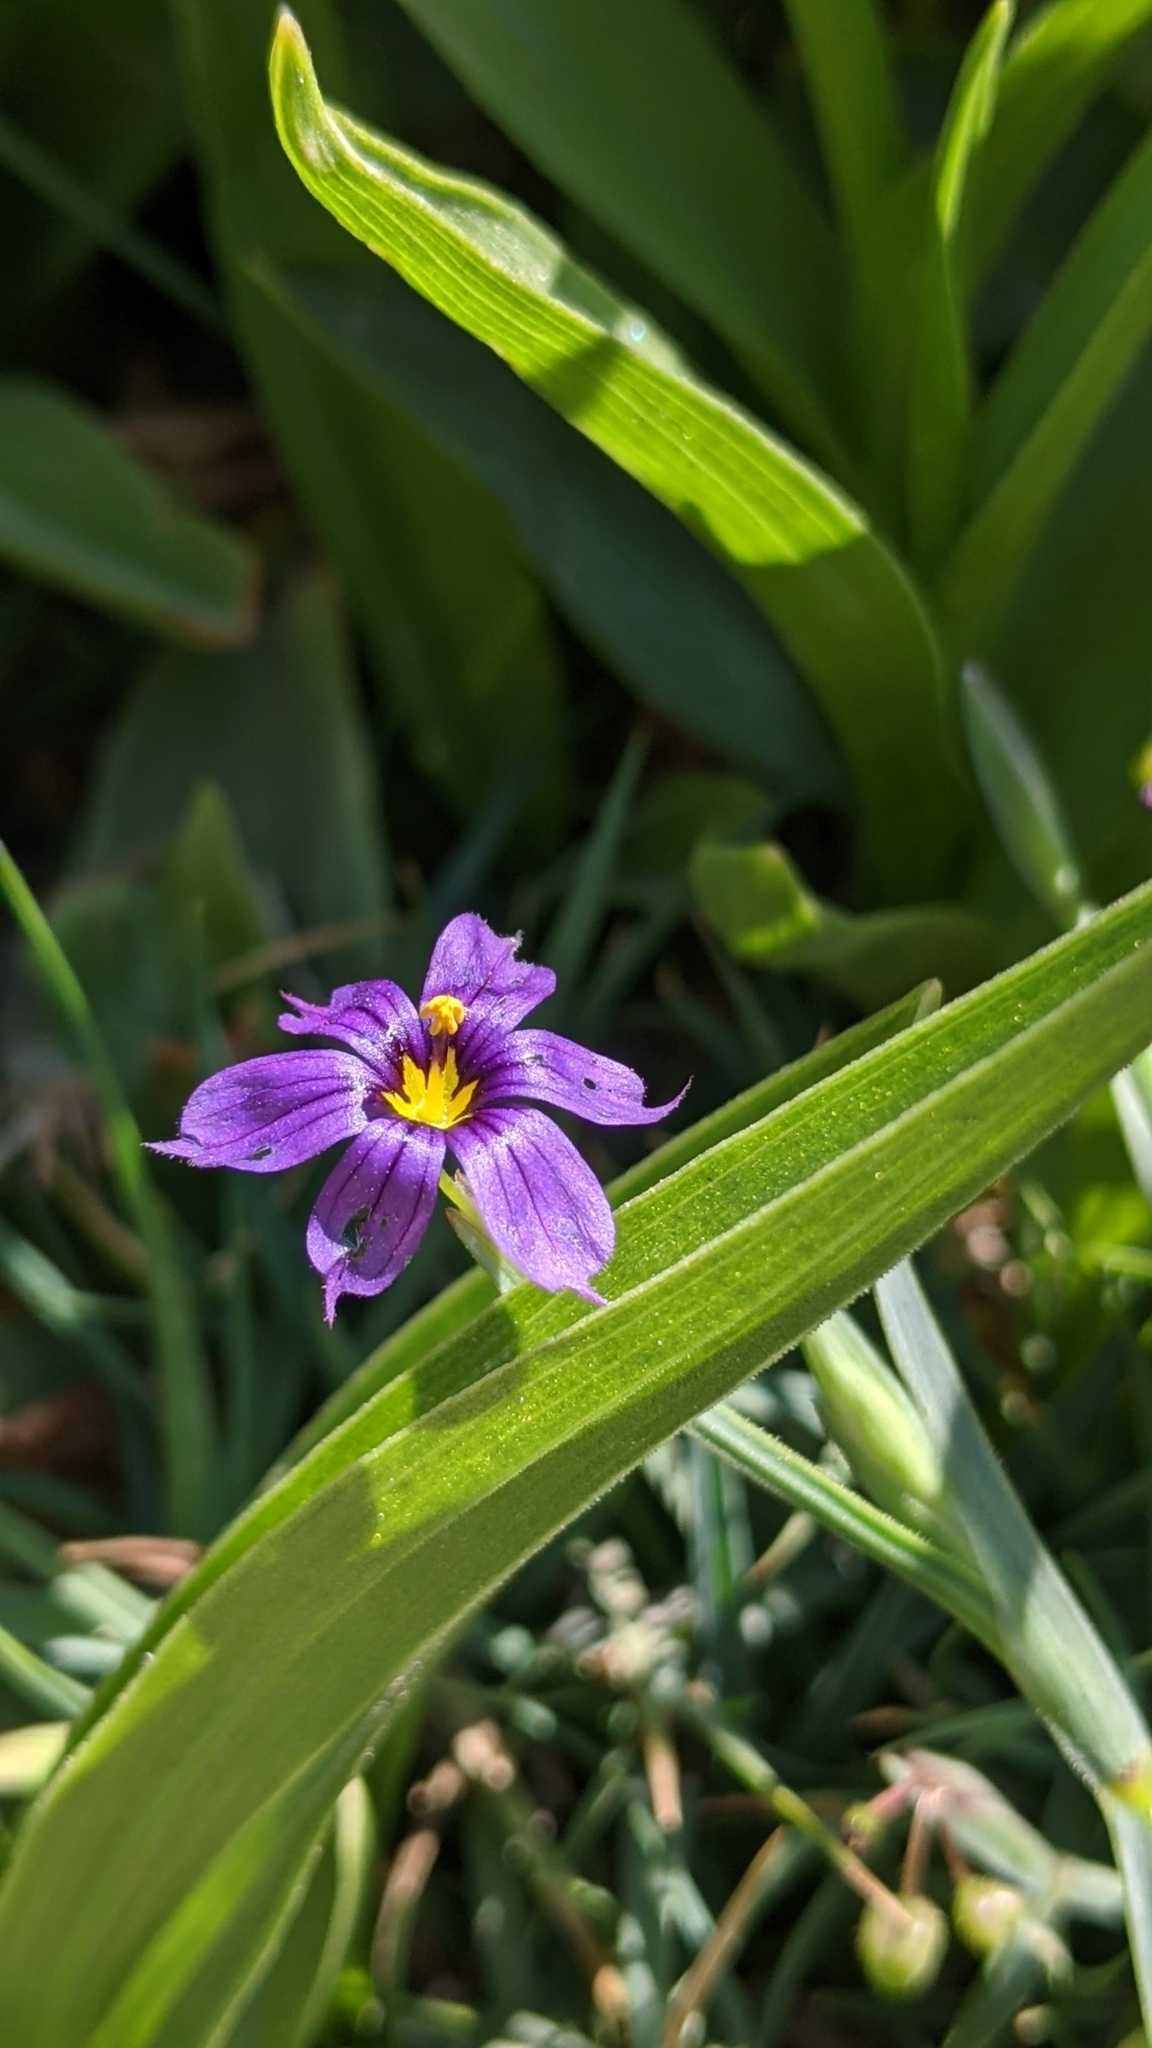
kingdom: Plantae
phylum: Tracheophyta
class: Liliopsida
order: Asparagales
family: Iridaceae
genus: Sisyrinchium
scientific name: Sisyrinchium bellum
